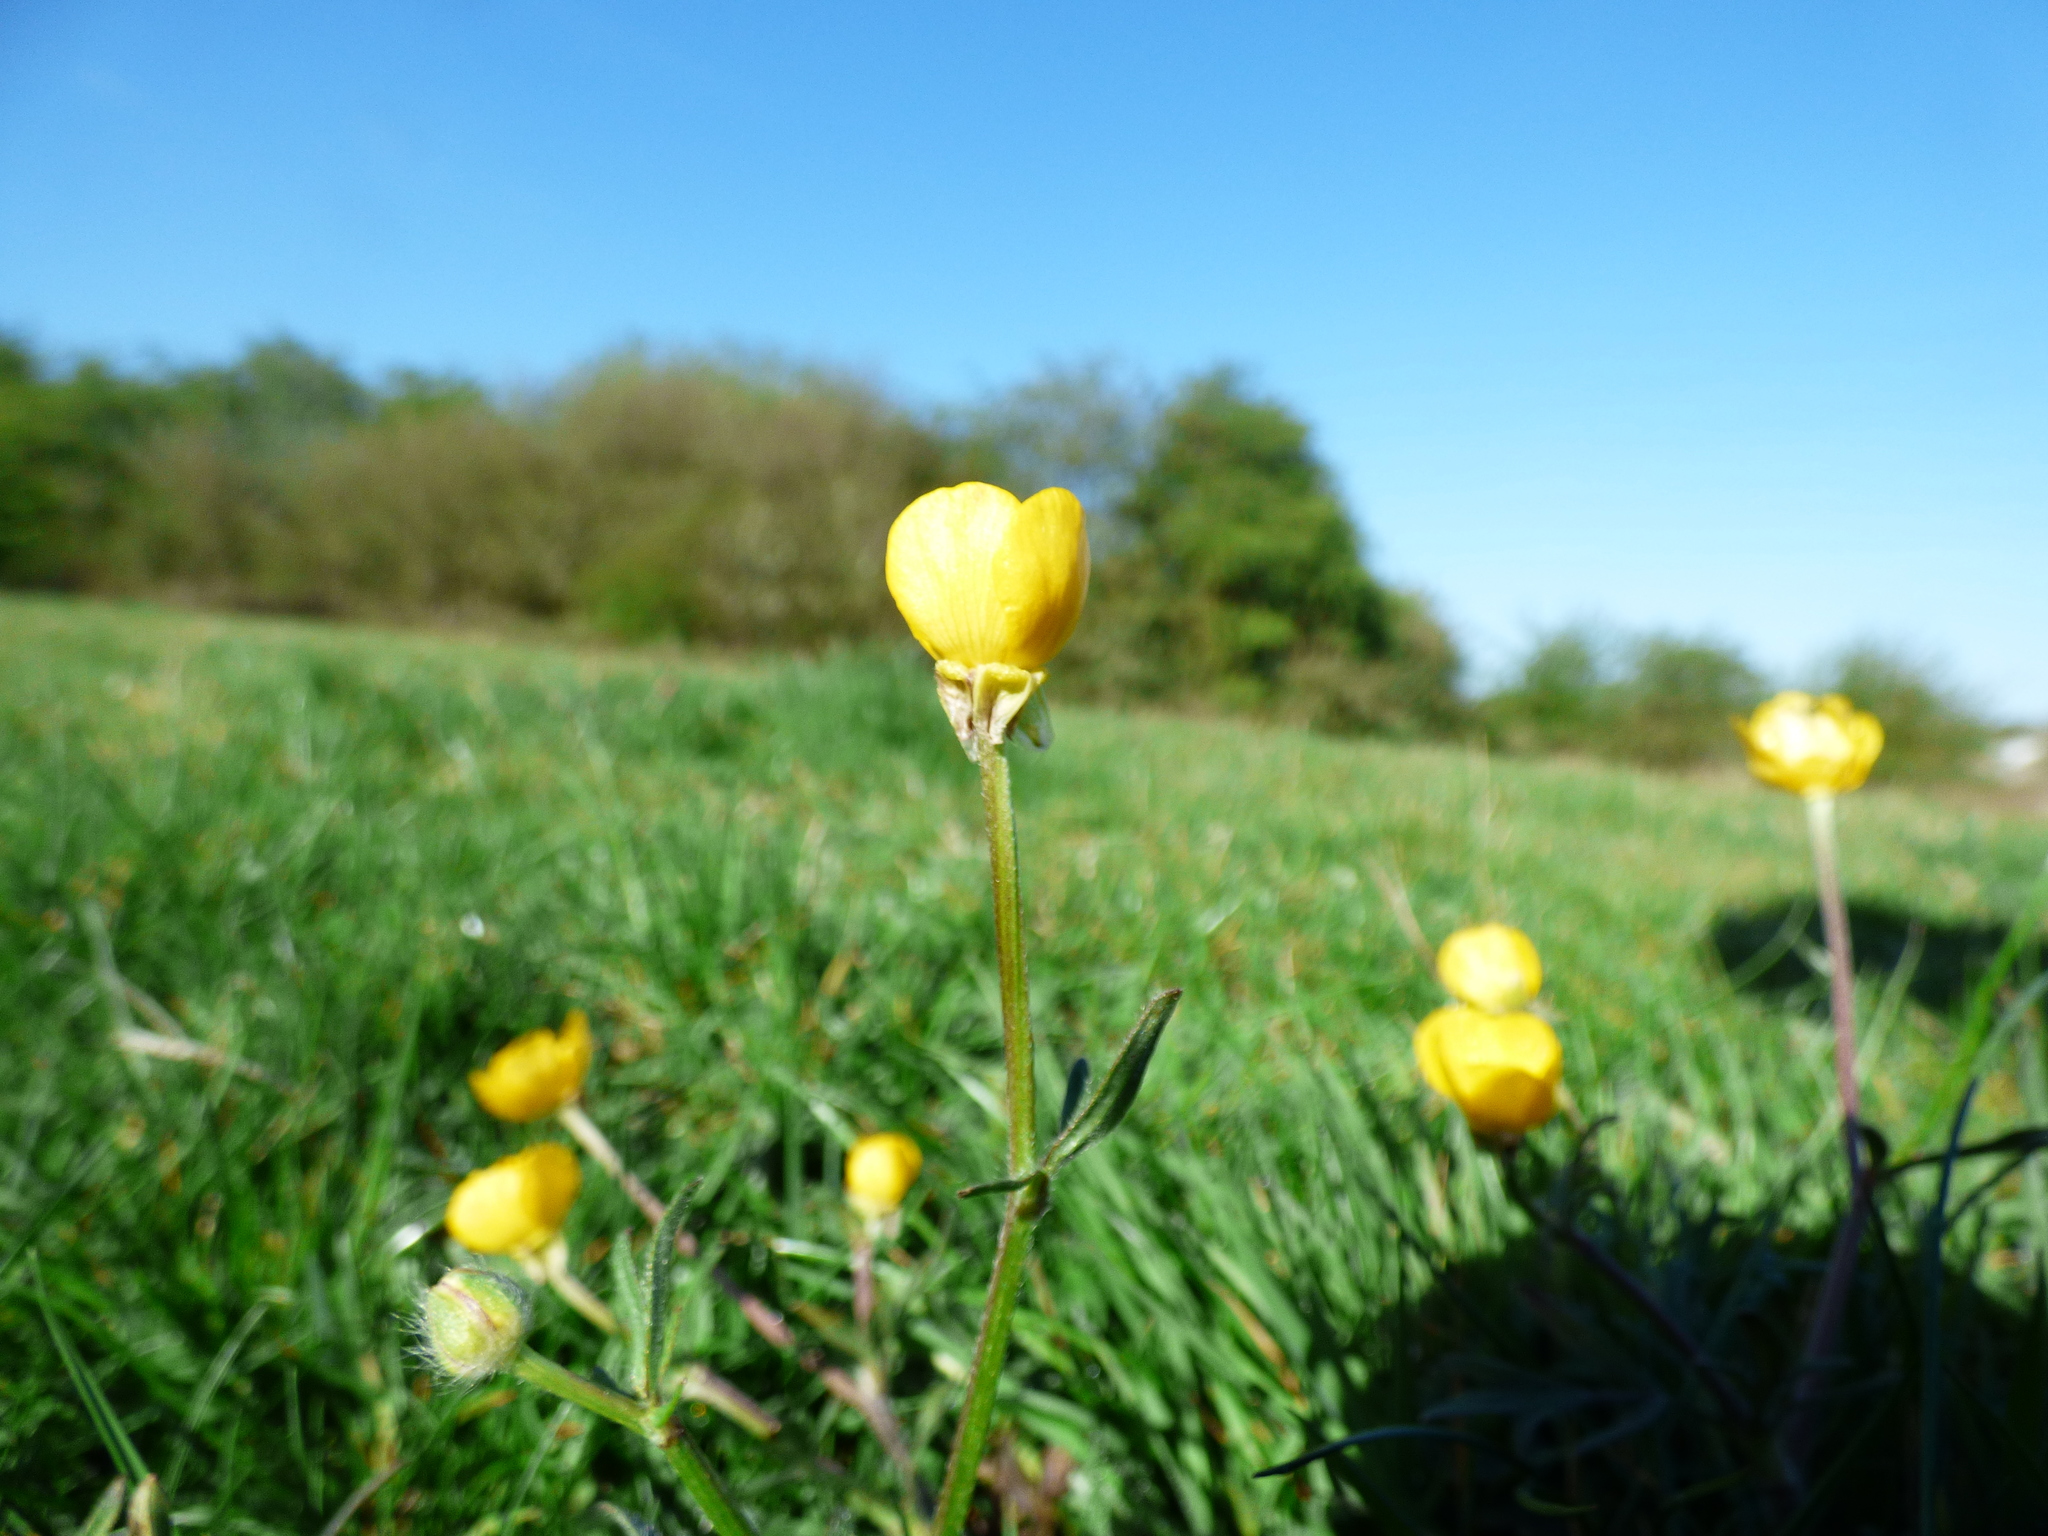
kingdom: Plantae
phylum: Tracheophyta
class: Magnoliopsida
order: Ranunculales
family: Ranunculaceae
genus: Ranunculus
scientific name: Ranunculus bulbosus
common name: Bulbous buttercup
